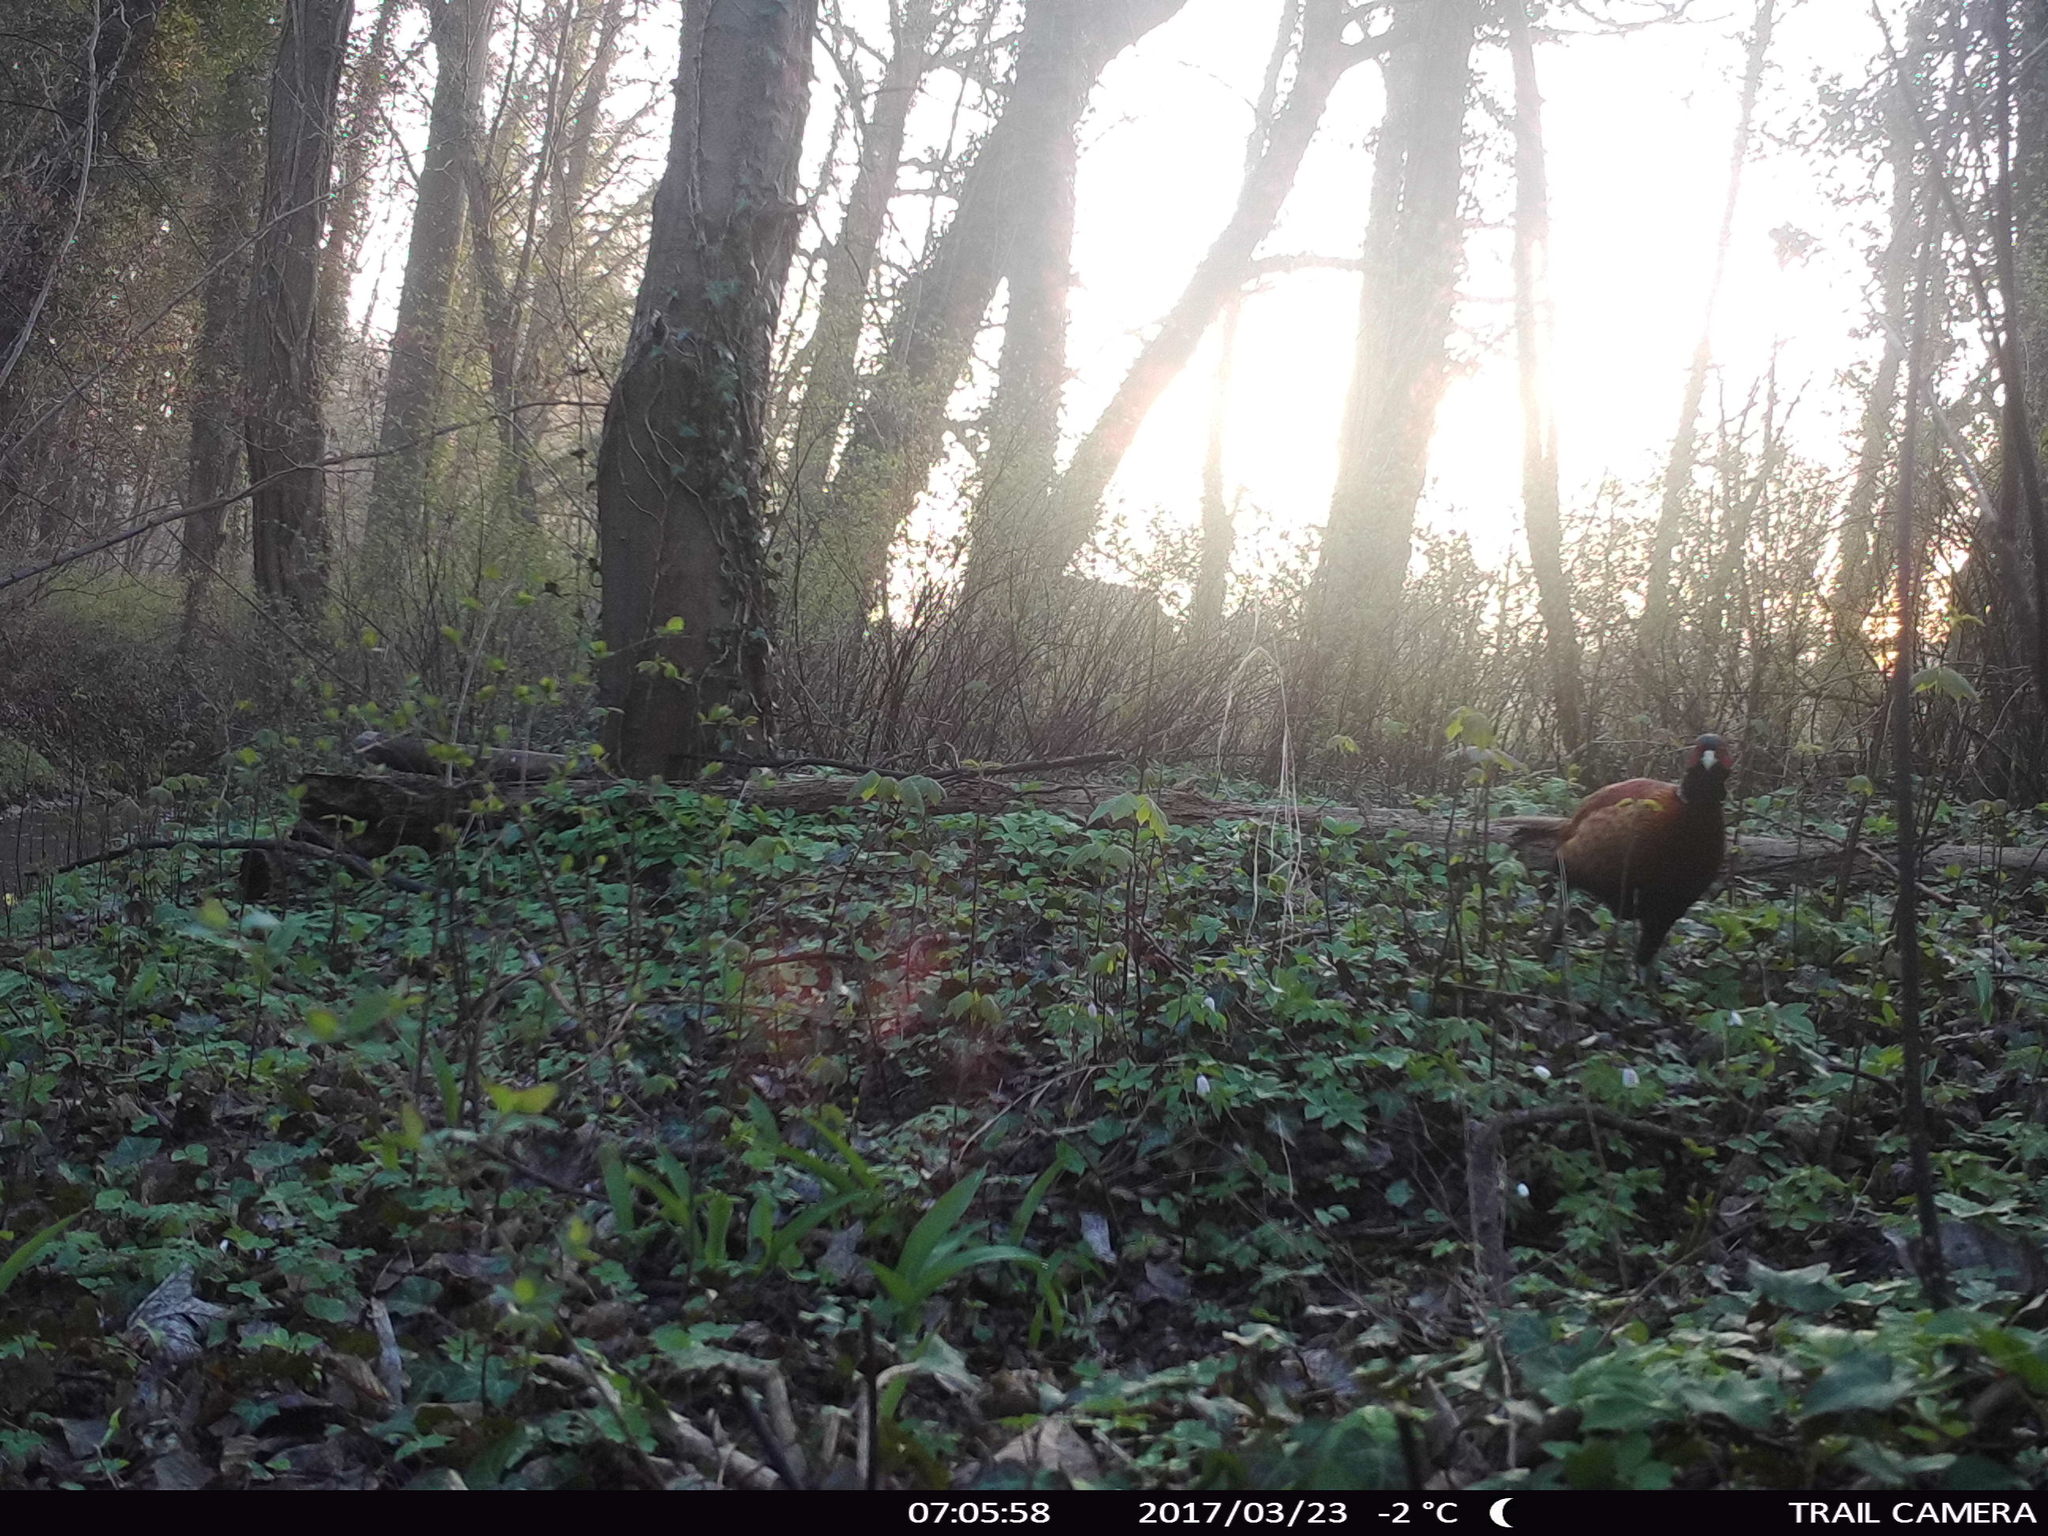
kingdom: Animalia
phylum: Chordata
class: Aves
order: Galliformes
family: Phasianidae
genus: Phasianus
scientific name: Phasianus colchicus
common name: Common pheasant
